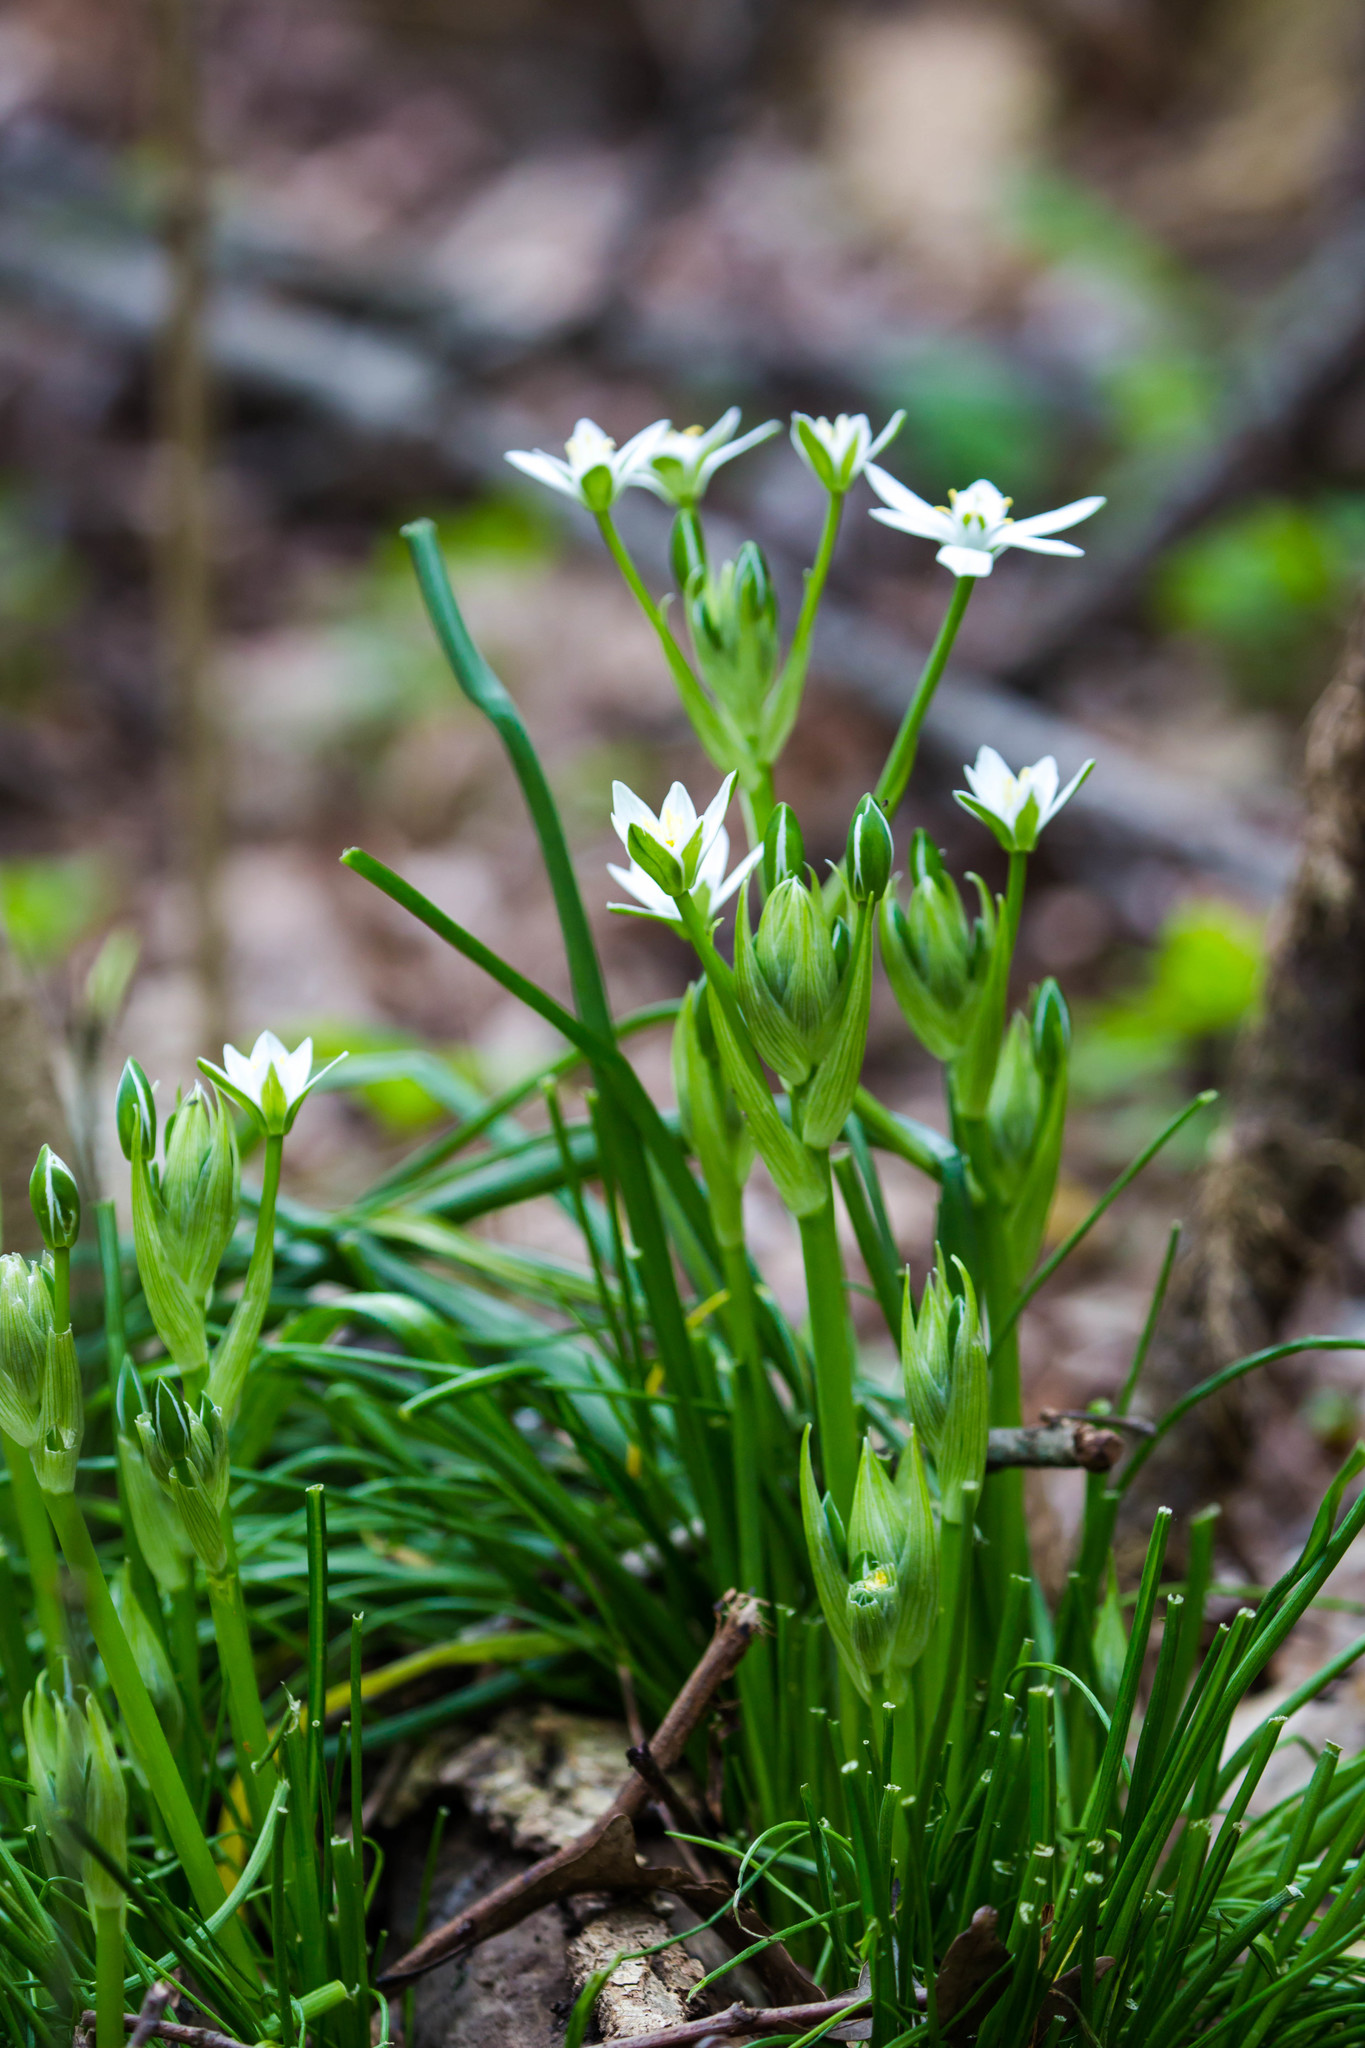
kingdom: Plantae
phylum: Tracheophyta
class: Liliopsida
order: Asparagales
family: Asparagaceae
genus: Ornithogalum
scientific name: Ornithogalum umbellatum
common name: Garden star-of-bethlehem
